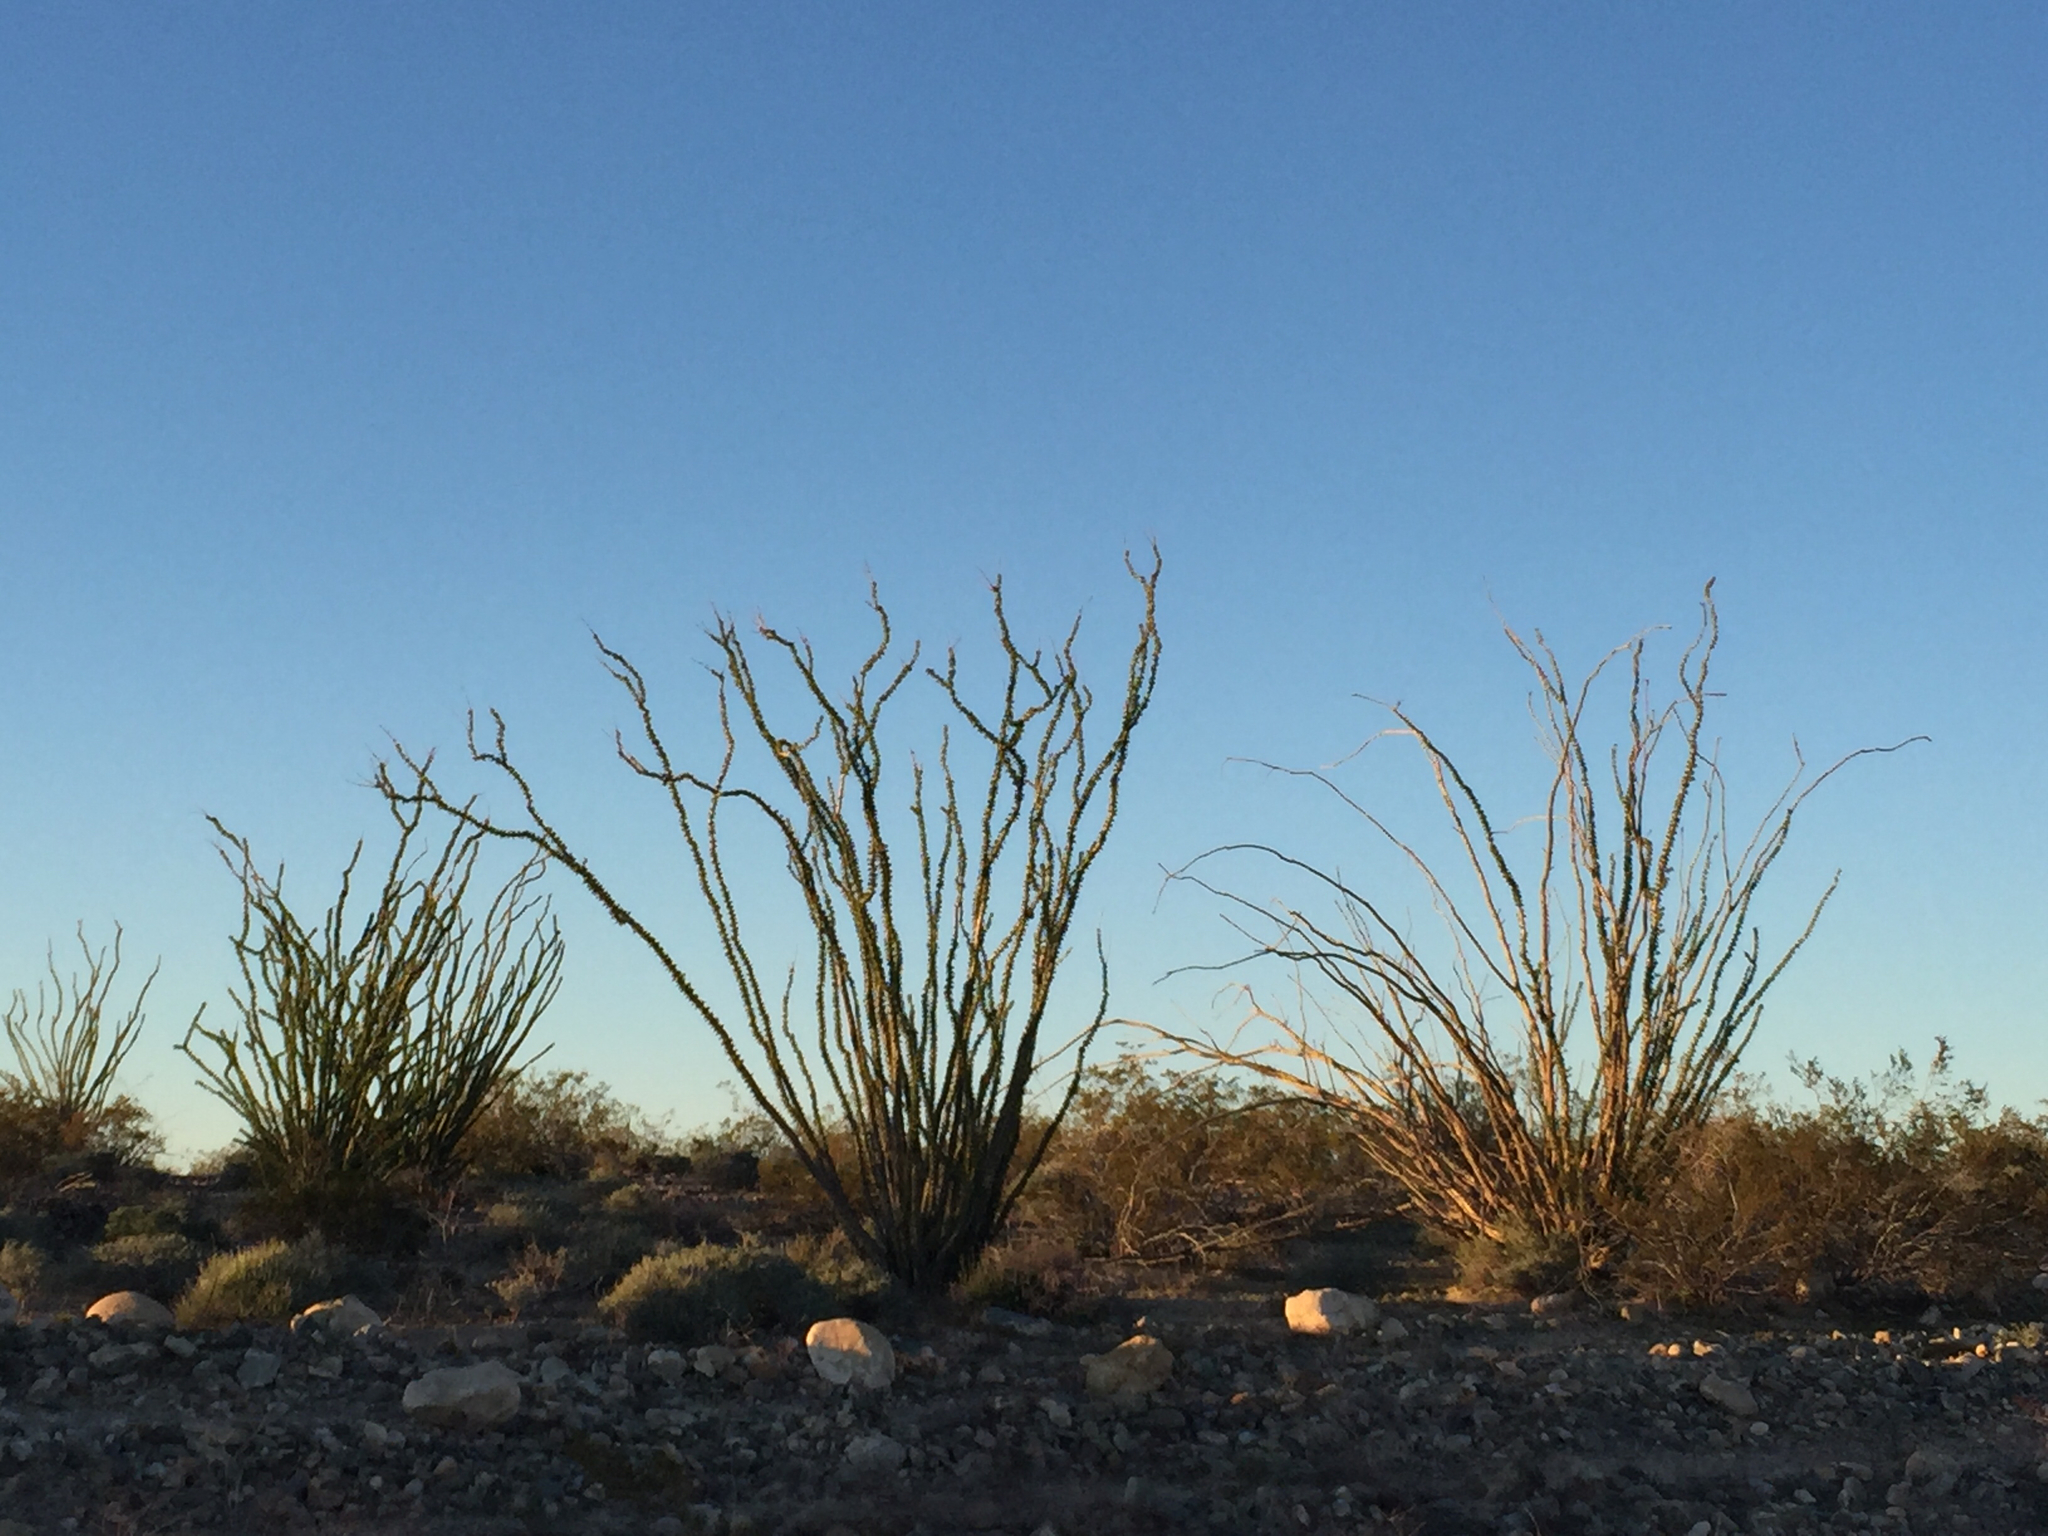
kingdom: Plantae
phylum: Tracheophyta
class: Magnoliopsida
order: Ericales
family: Fouquieriaceae
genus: Fouquieria
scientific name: Fouquieria splendens
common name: Vine-cactus
